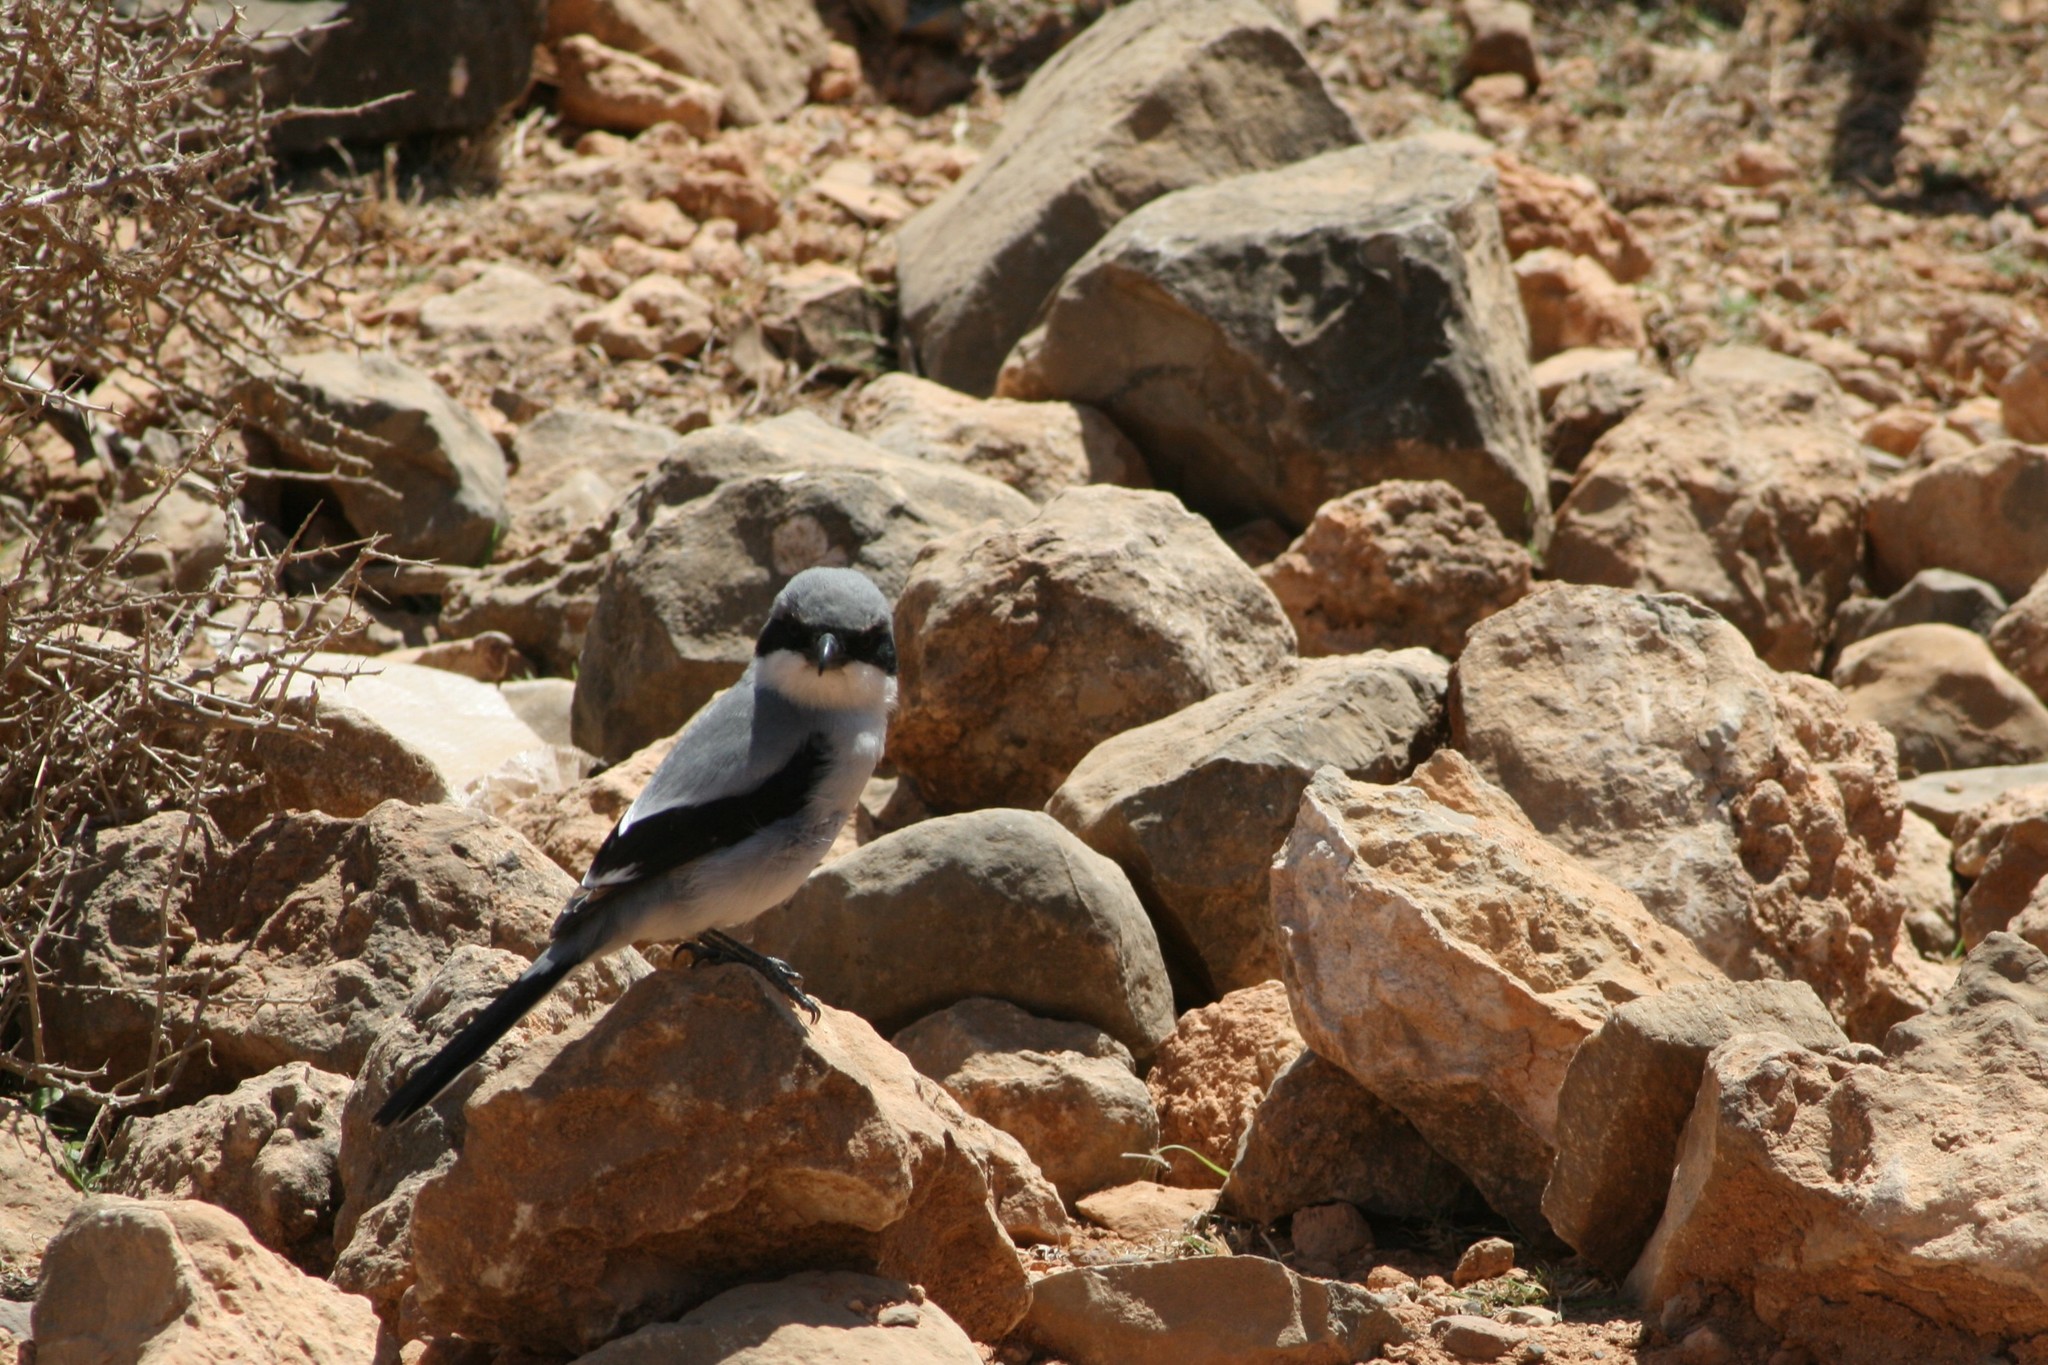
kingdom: Animalia
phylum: Chordata
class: Aves
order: Passeriformes
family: Laniidae
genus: Lanius
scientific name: Lanius excubitor
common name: Great grey shrike
